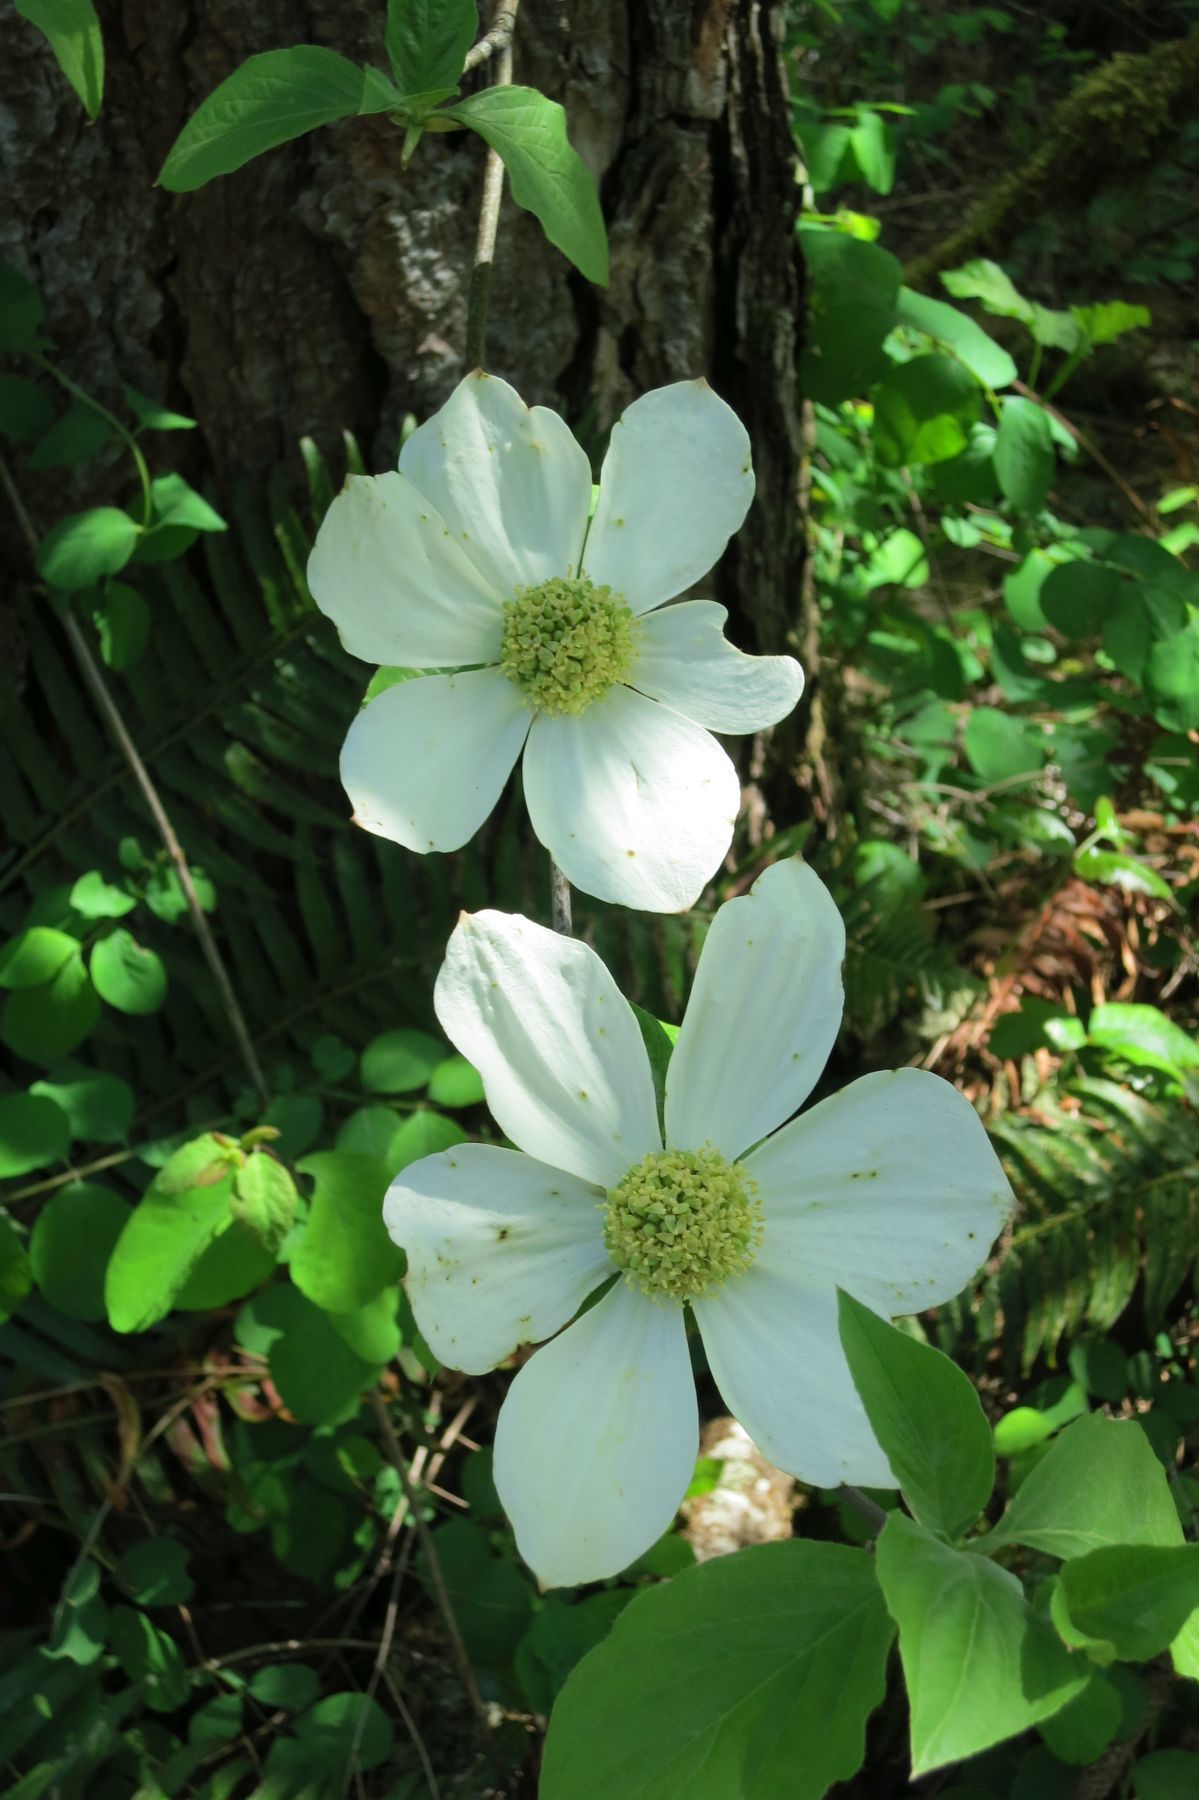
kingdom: Plantae
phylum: Tracheophyta
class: Magnoliopsida
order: Cornales
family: Cornaceae
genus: Cornus
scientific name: Cornus nuttallii
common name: Pacific dogwood
